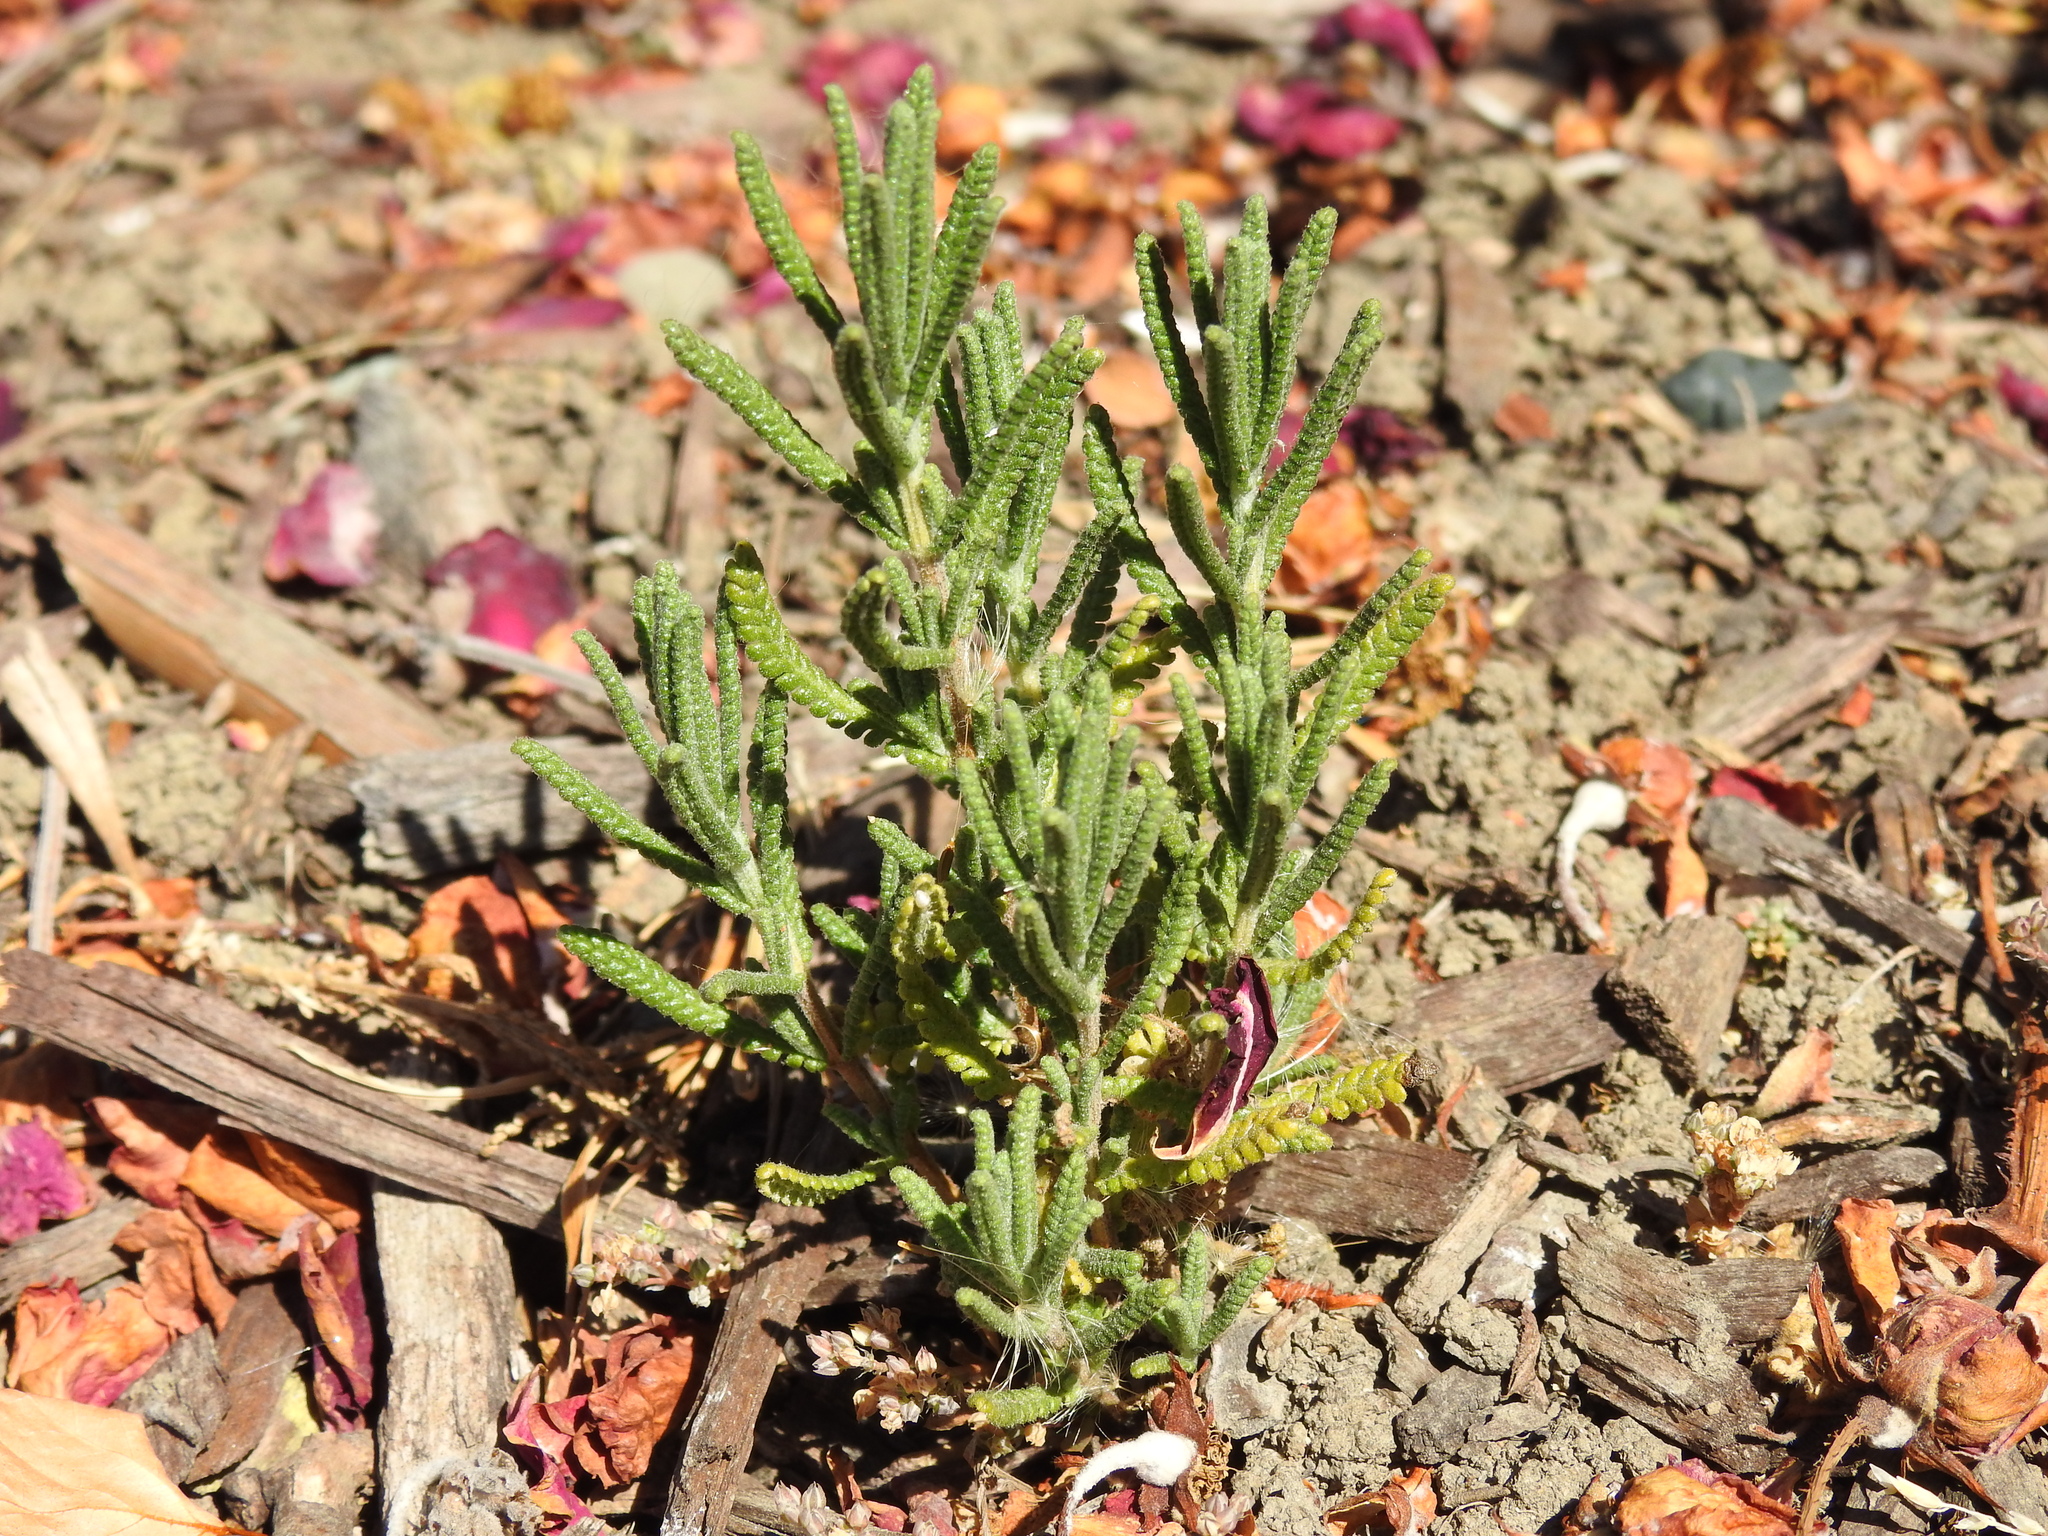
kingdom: Plantae
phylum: Tracheophyta
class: Magnoliopsida
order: Lamiales
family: Lamiaceae
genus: Lavandula
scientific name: Lavandula dentata
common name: French lavender
